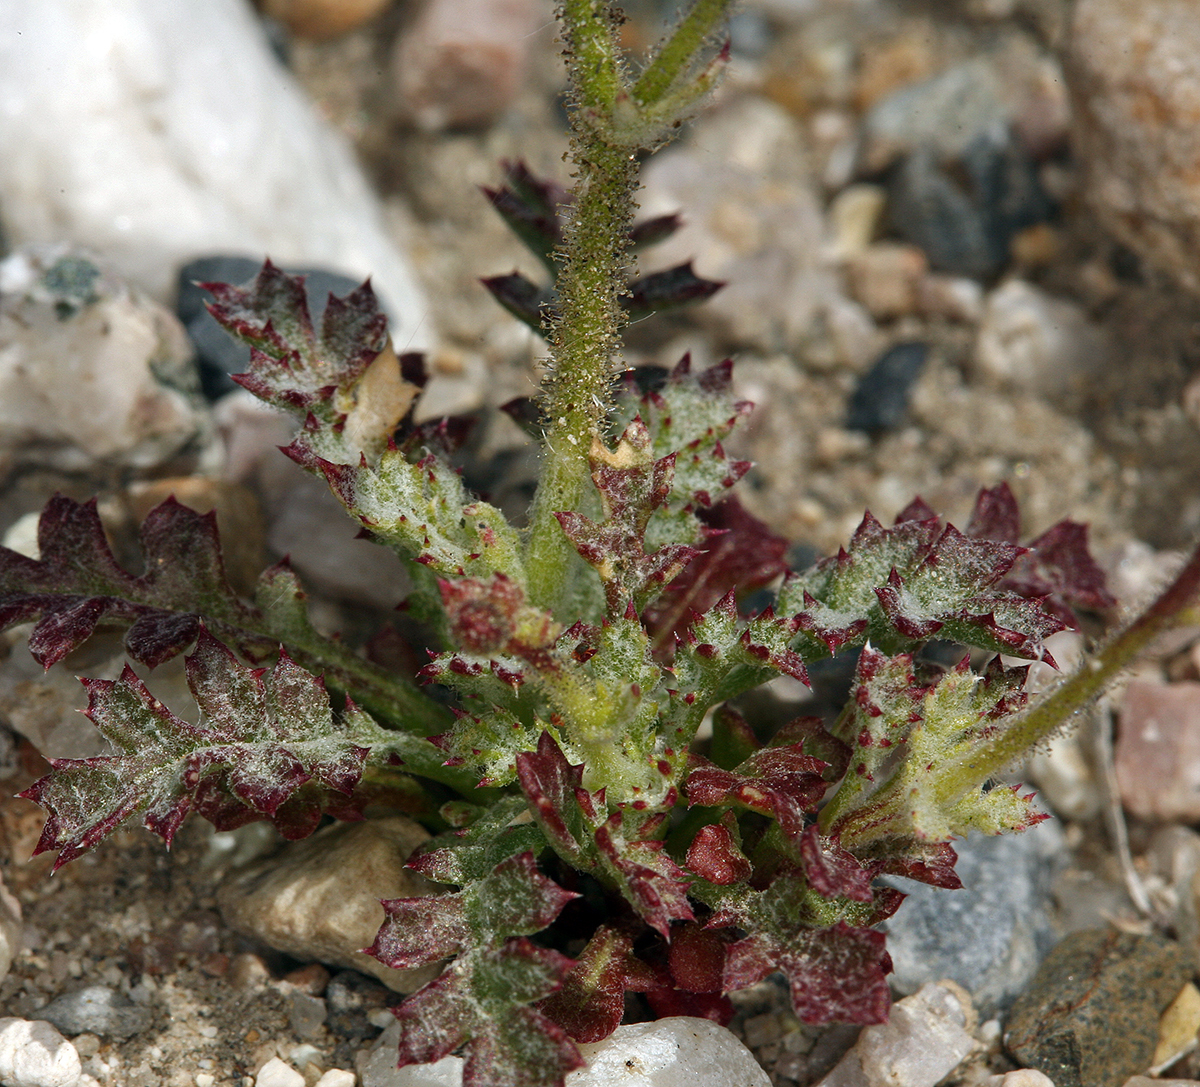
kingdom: Plantae
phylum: Tracheophyta
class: Magnoliopsida
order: Ericales
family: Polemoniaceae
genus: Gilia
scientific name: Gilia cana
